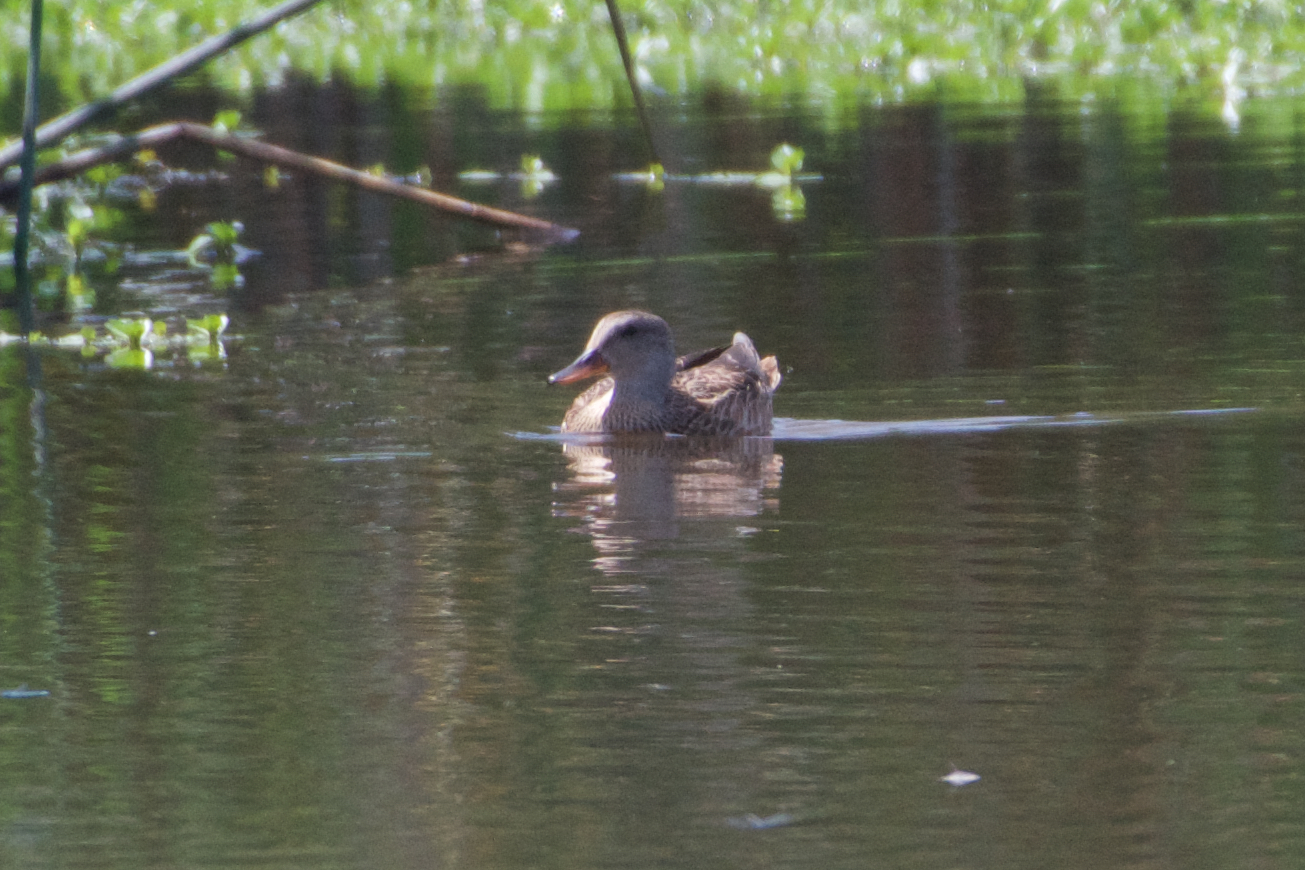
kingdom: Animalia
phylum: Chordata
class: Aves
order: Anseriformes
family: Anatidae
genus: Mareca
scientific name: Mareca strepera
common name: Gadwall
